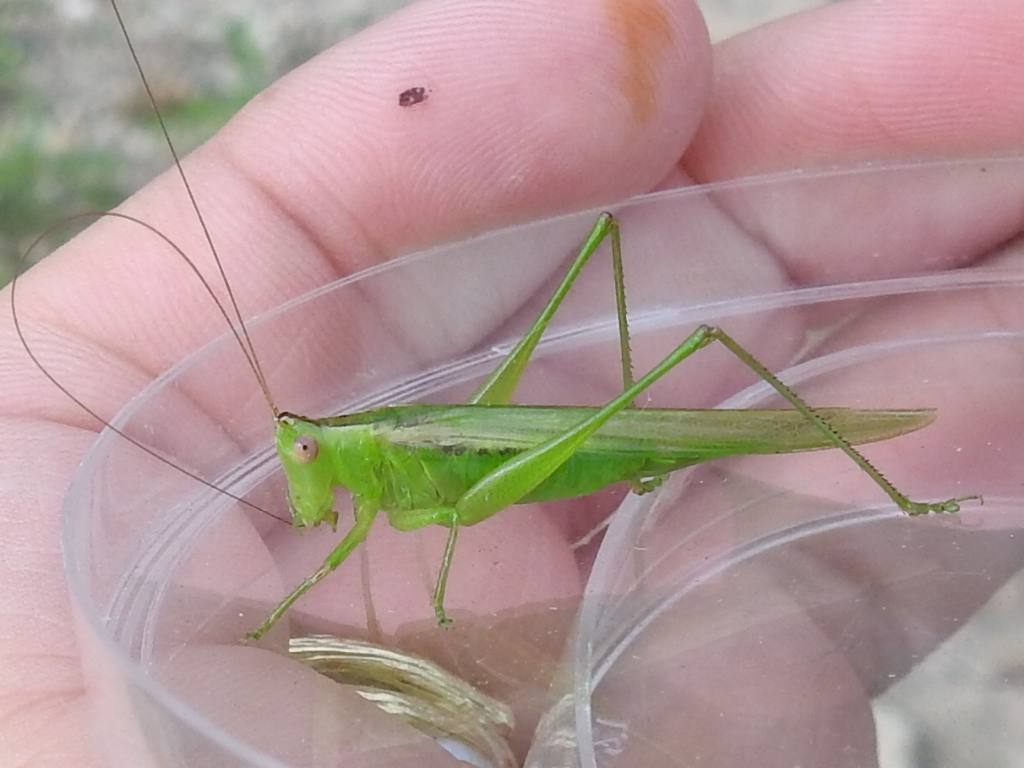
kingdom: Animalia
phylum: Arthropoda
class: Insecta
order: Orthoptera
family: Tettigoniidae
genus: Conocephalus
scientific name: Conocephalus fasciatus
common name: Slender meadow katydid
